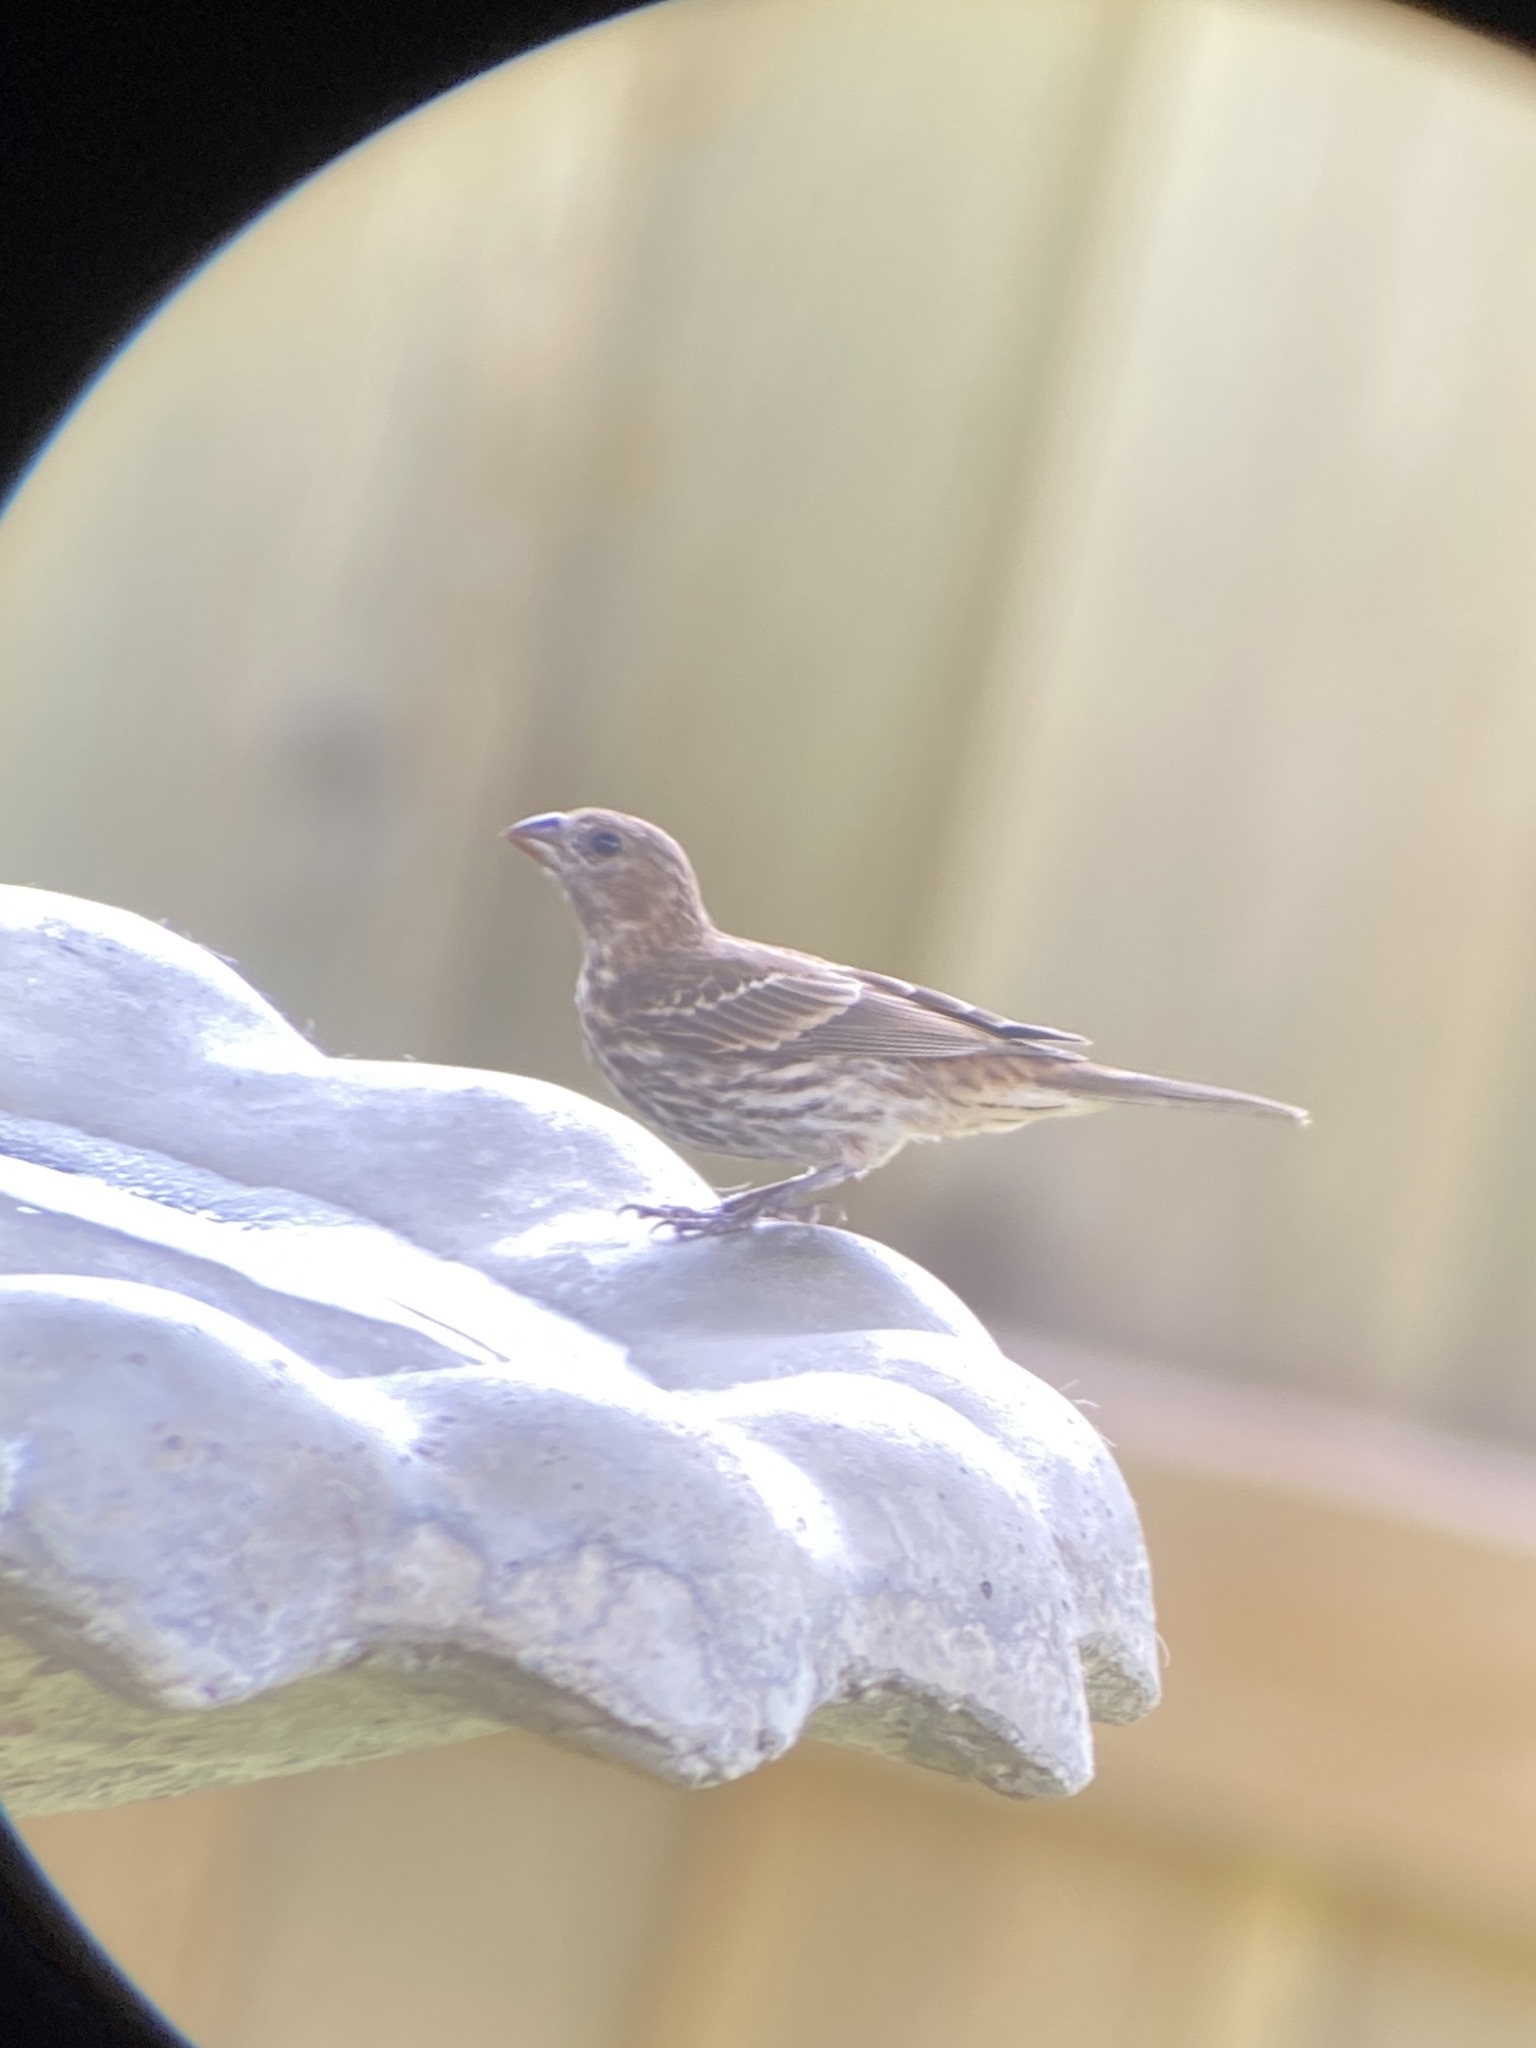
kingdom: Animalia
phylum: Chordata
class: Aves
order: Passeriformes
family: Fringillidae
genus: Haemorhous
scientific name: Haemorhous mexicanus
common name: House finch
